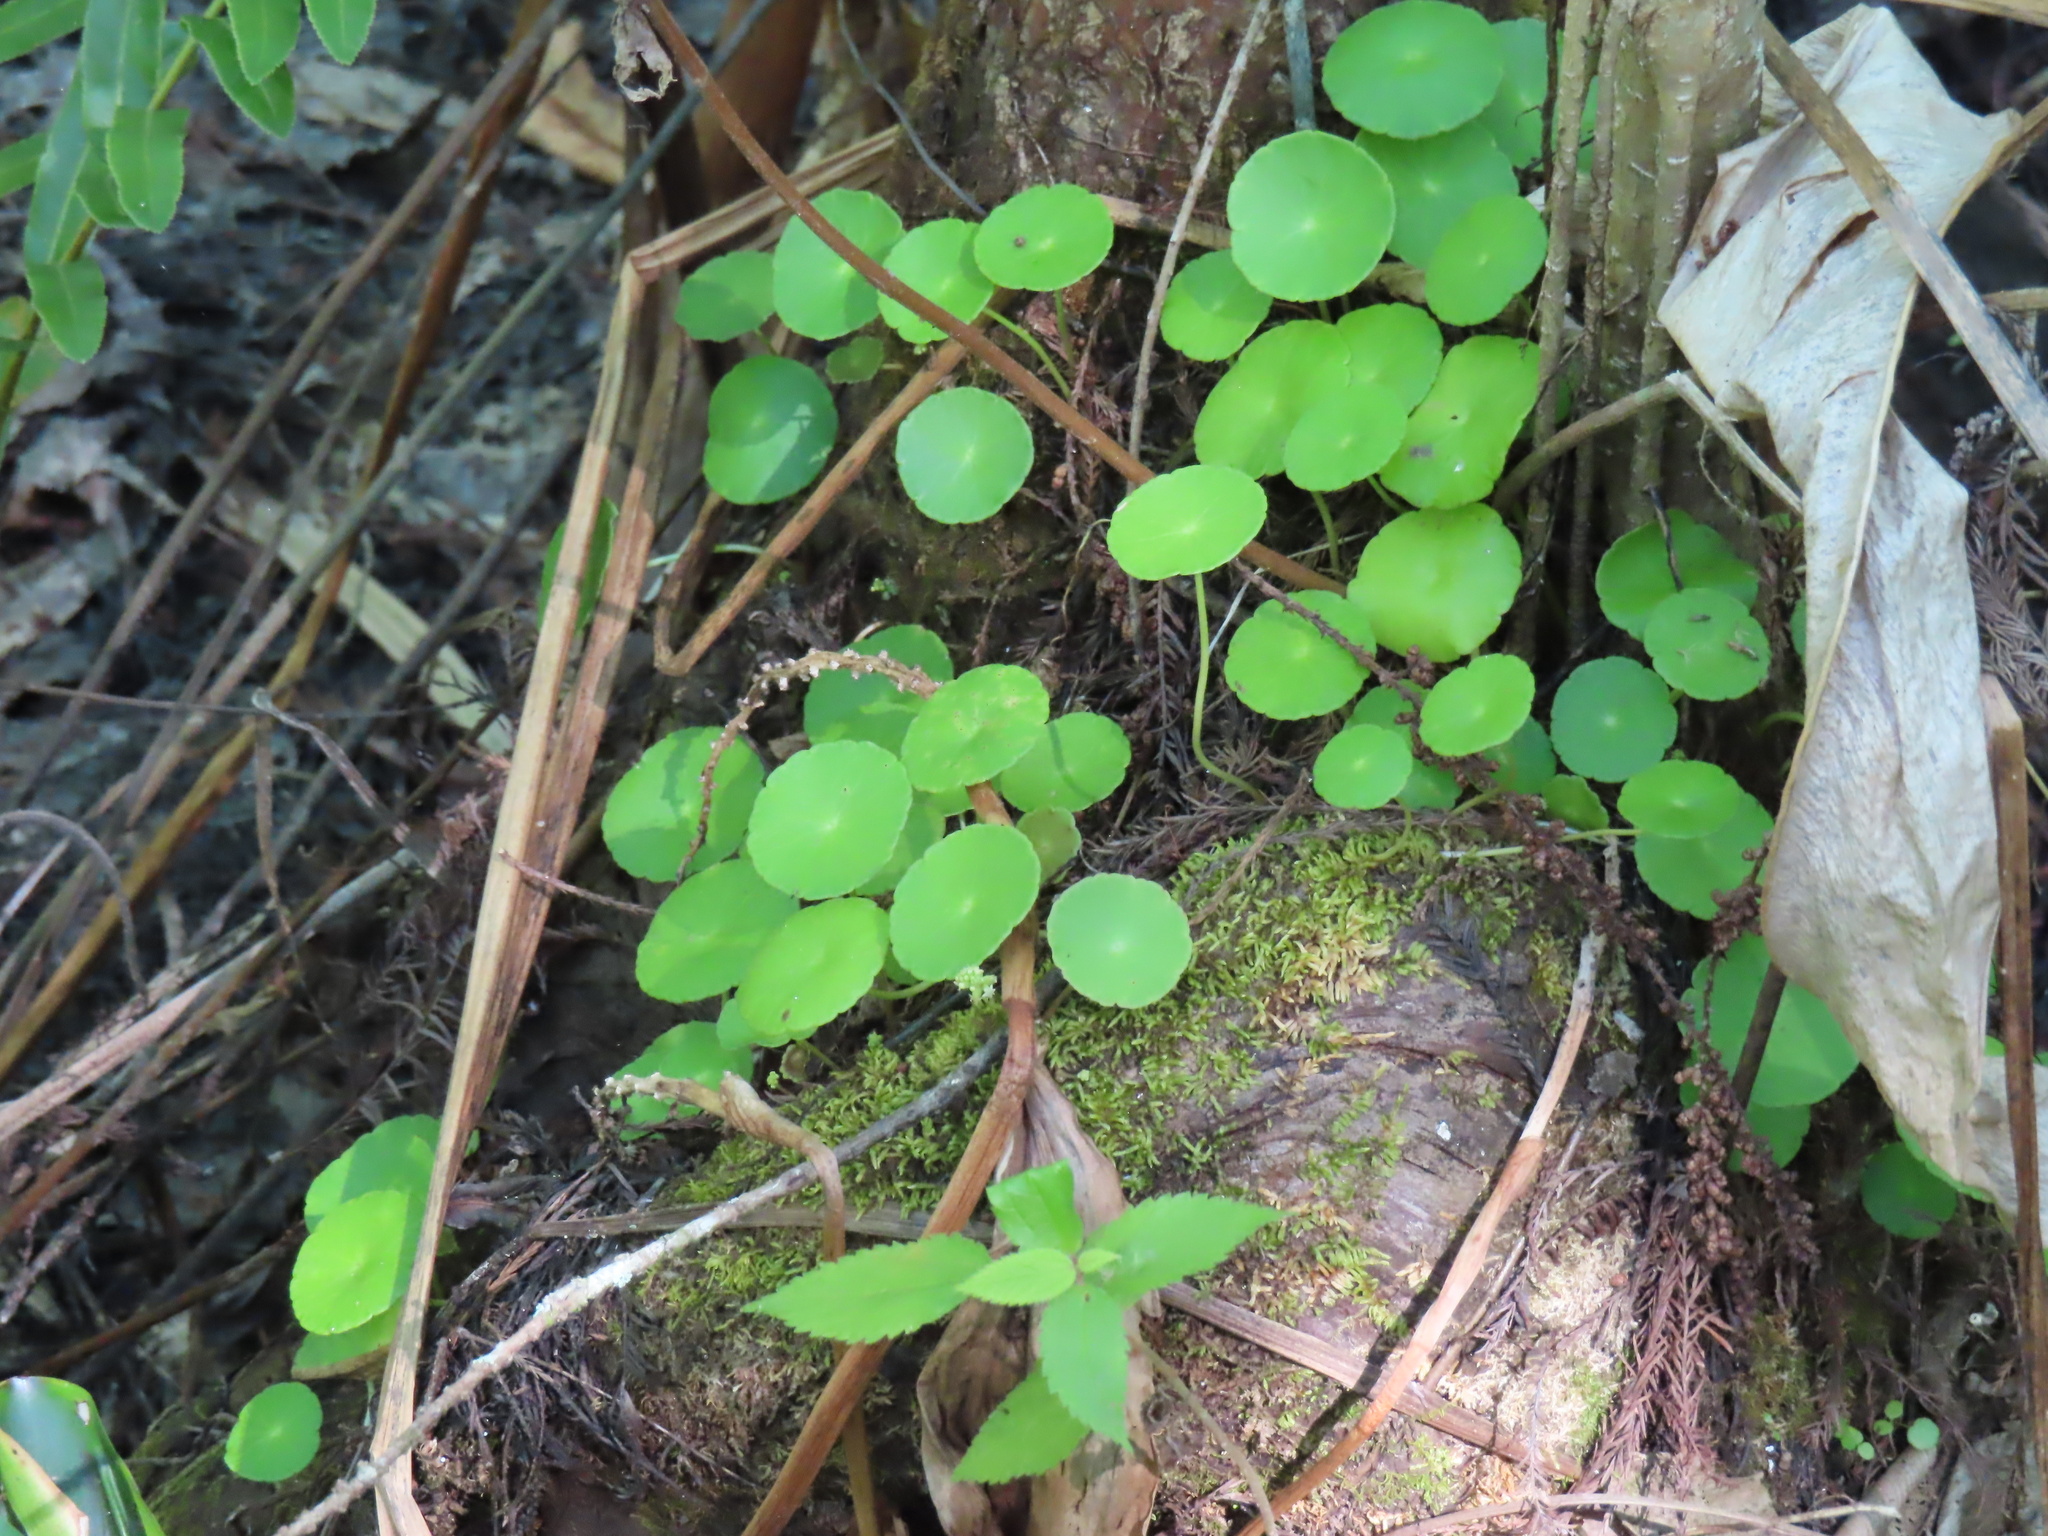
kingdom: Plantae
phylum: Tracheophyta
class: Magnoliopsida
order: Apiales
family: Araliaceae
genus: Hydrocotyle
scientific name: Hydrocotyle verticillata
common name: Whorled marshpennywort
